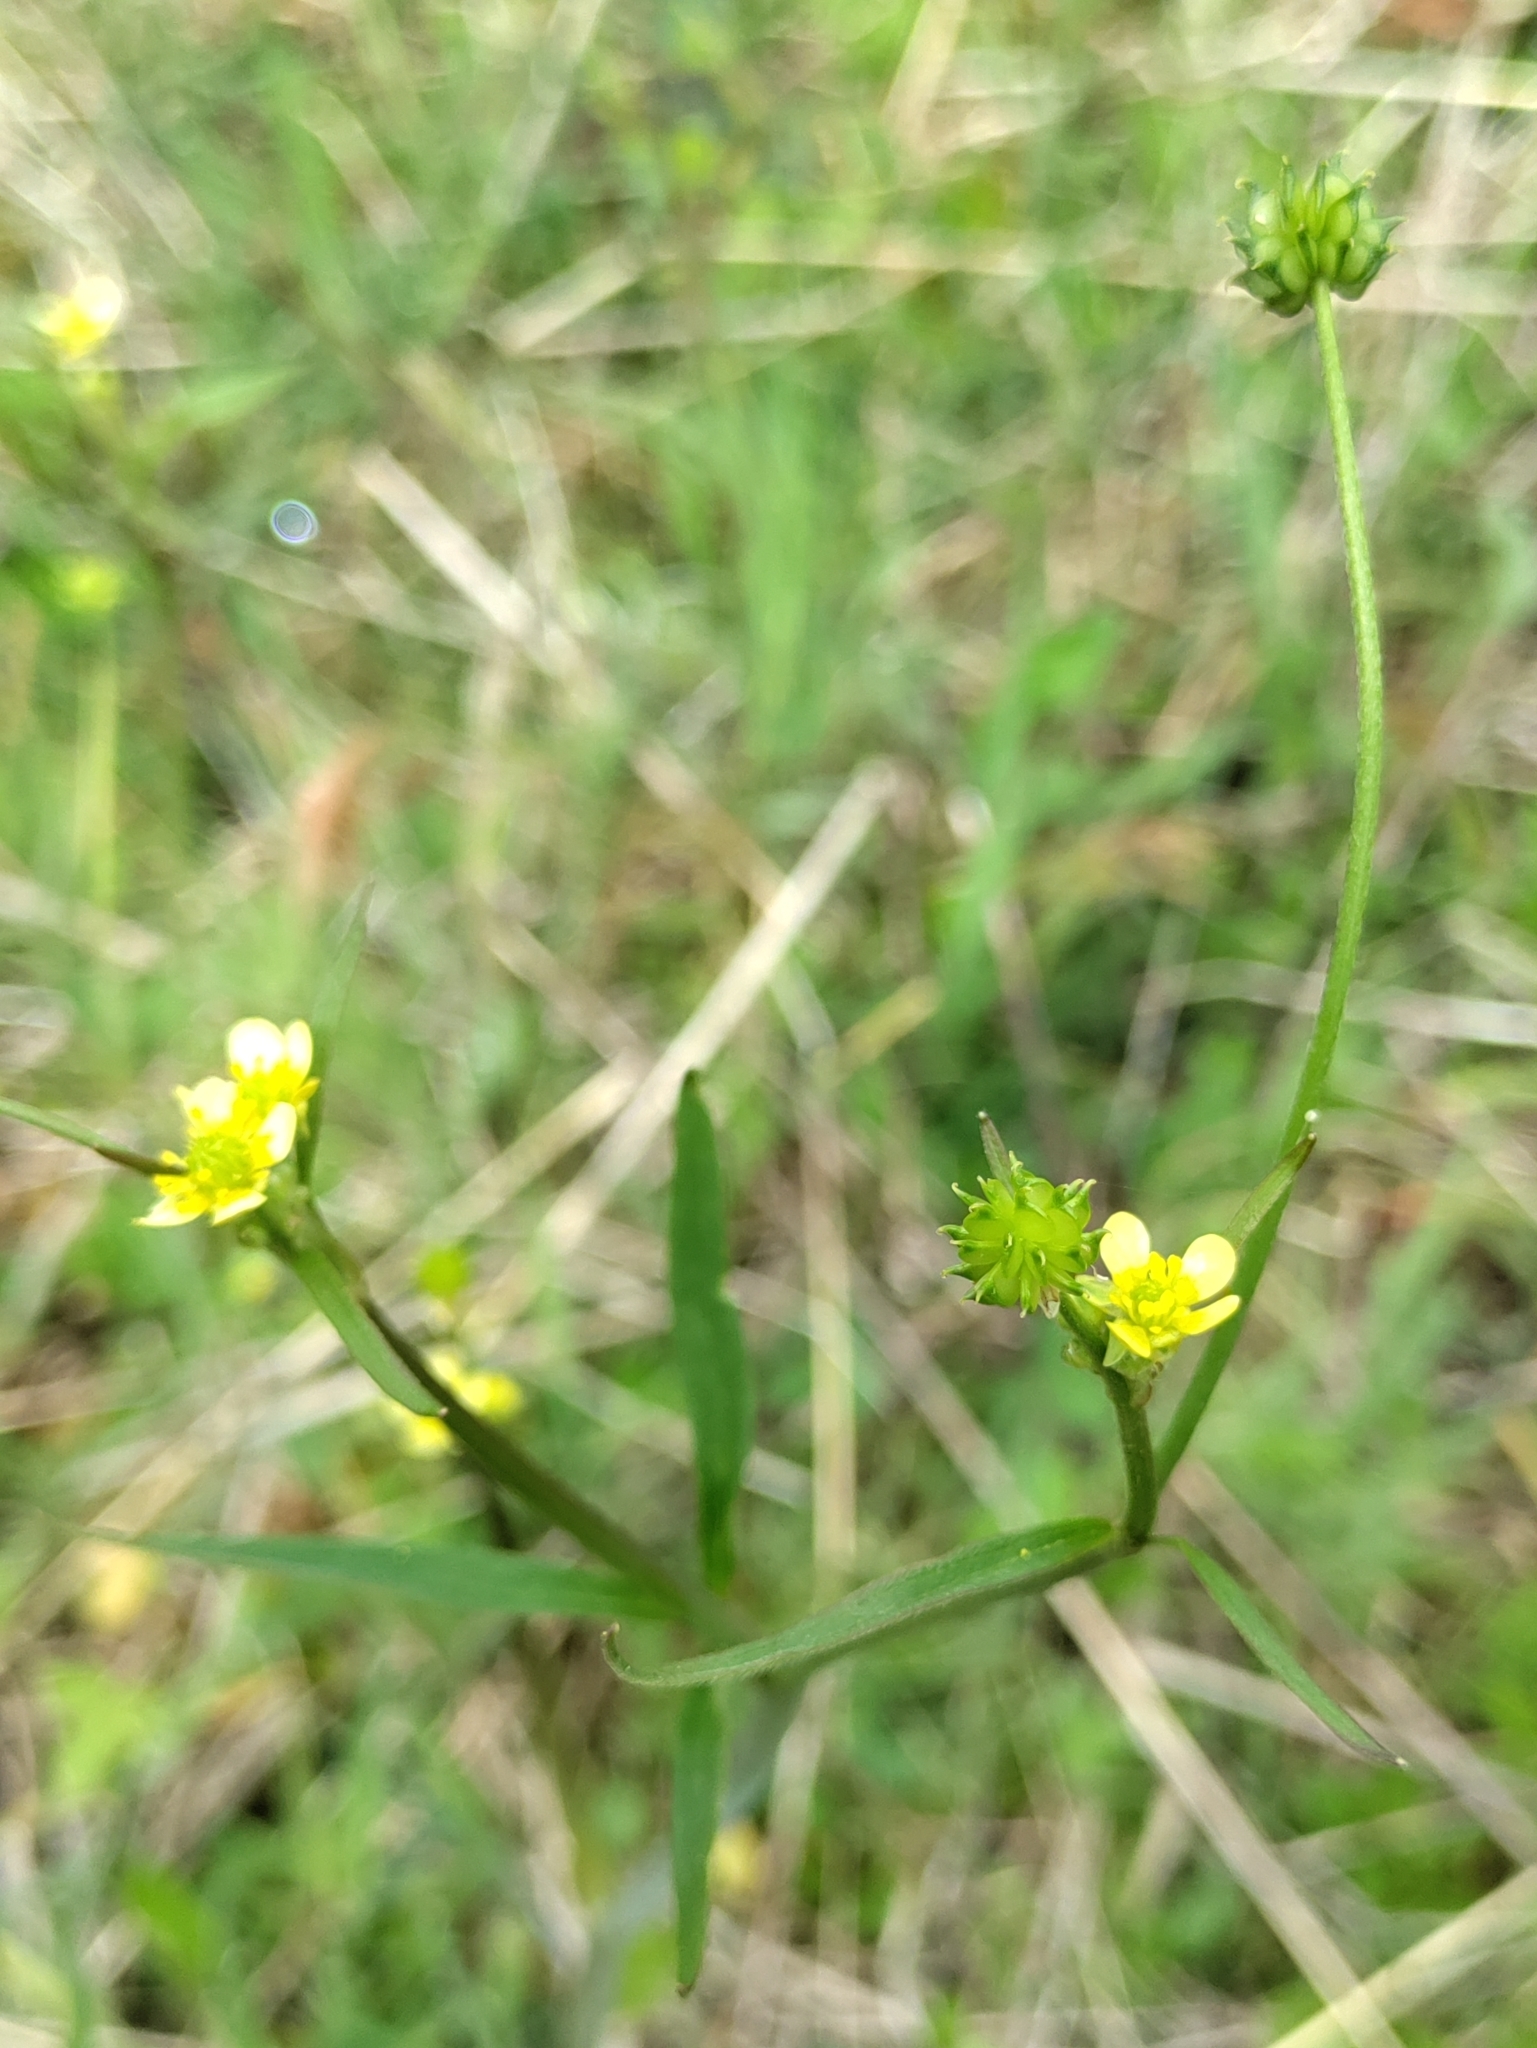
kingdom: Plantae
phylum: Tracheophyta
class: Magnoliopsida
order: Ranunculales
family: Ranunculaceae
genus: Ranunculus
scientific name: Ranunculus uncinatus
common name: Little buttercup
